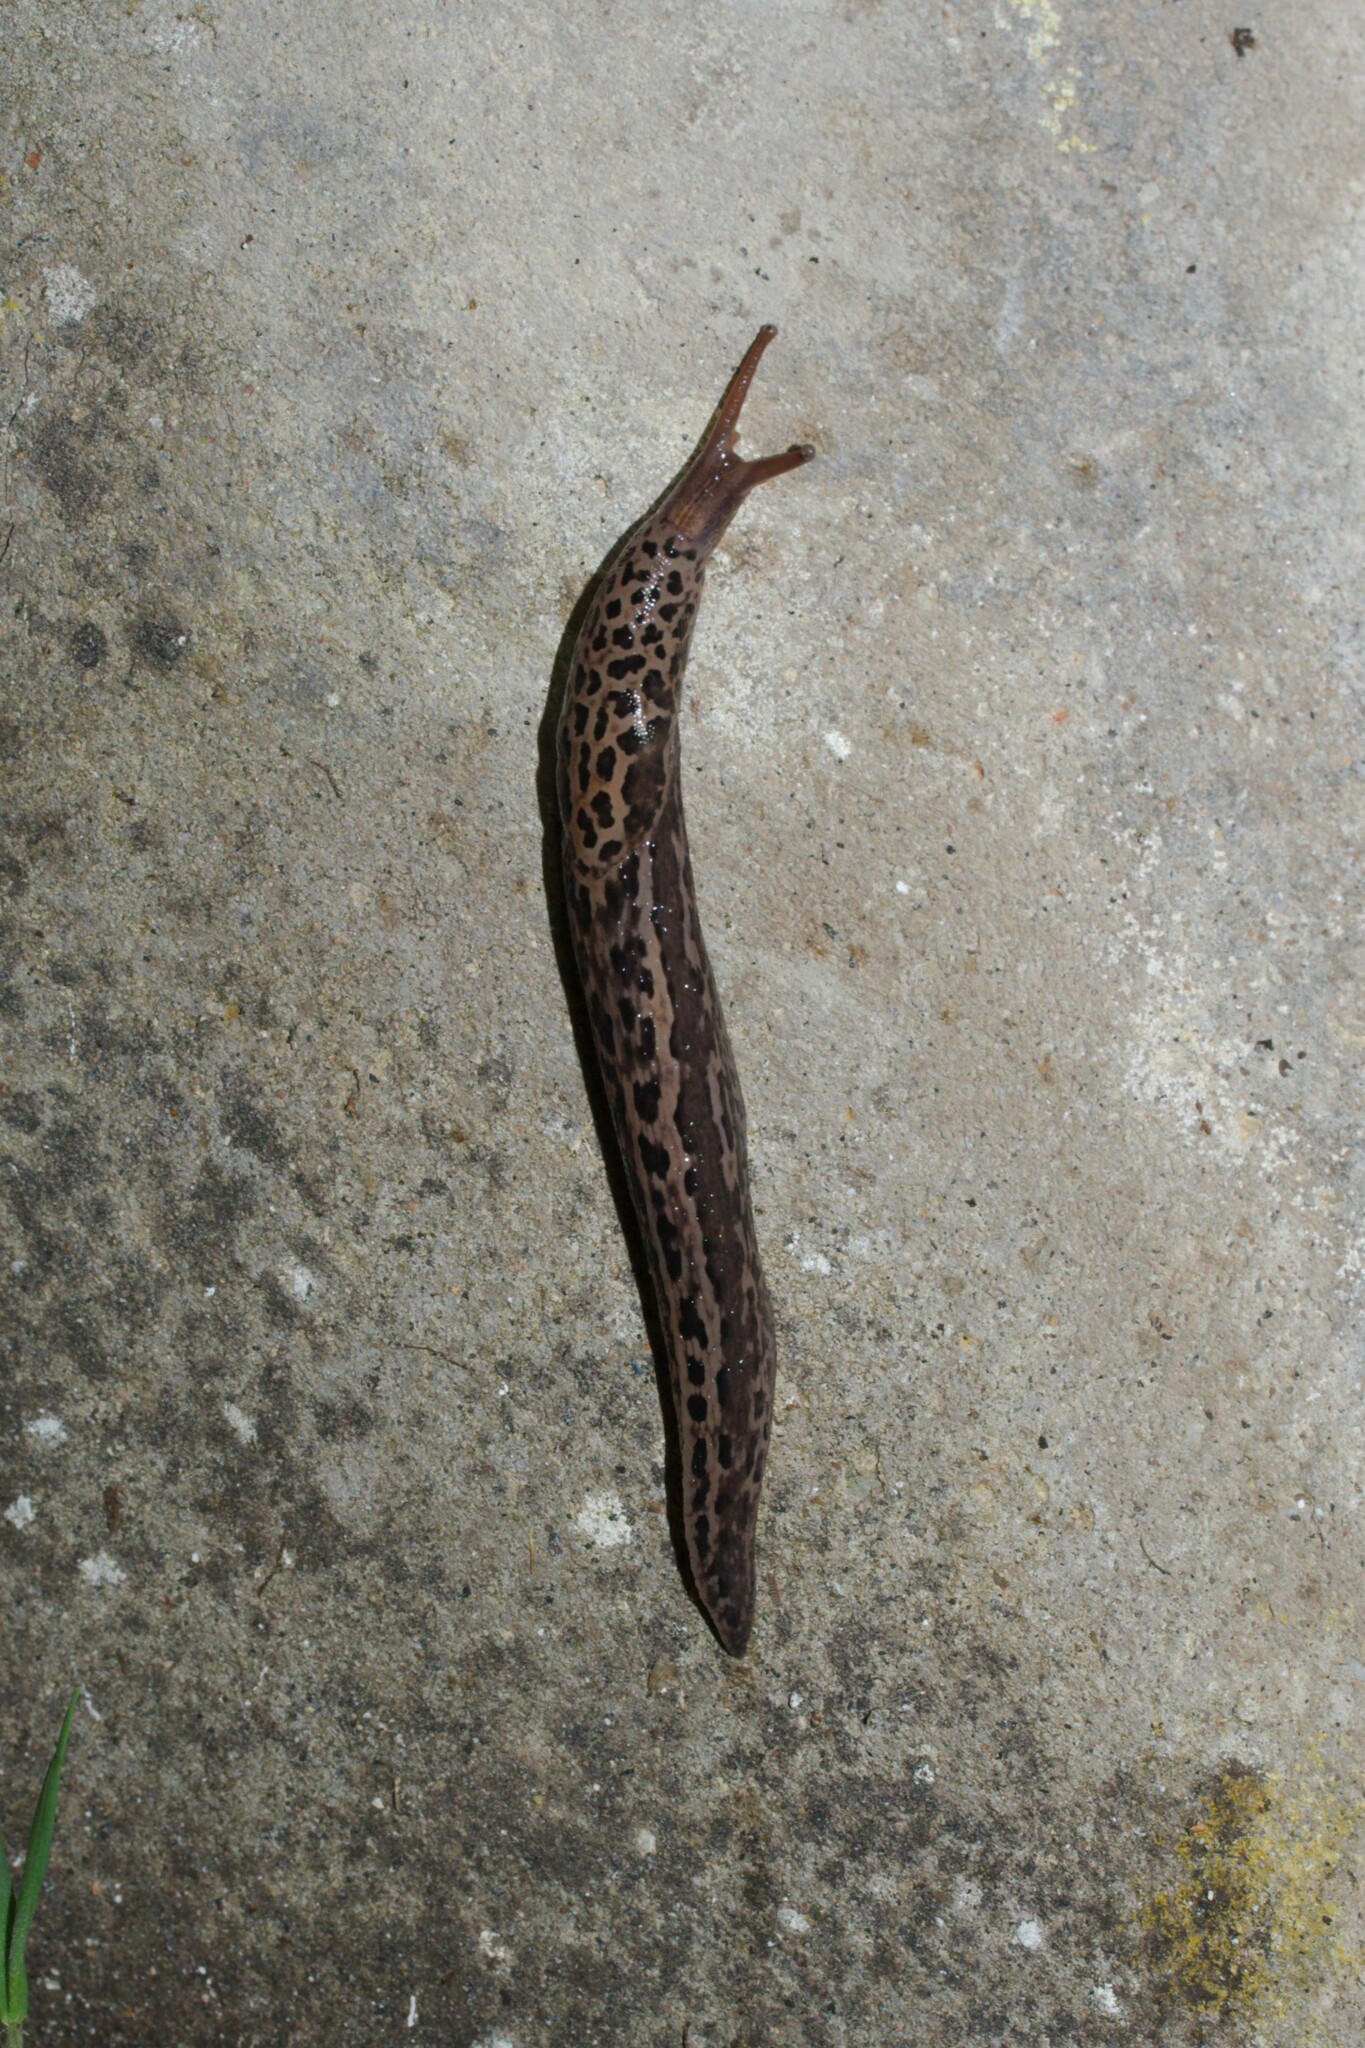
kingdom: Animalia
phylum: Mollusca
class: Gastropoda
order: Stylommatophora
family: Limacidae
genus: Limax
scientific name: Limax maximus
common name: Great grey slug
